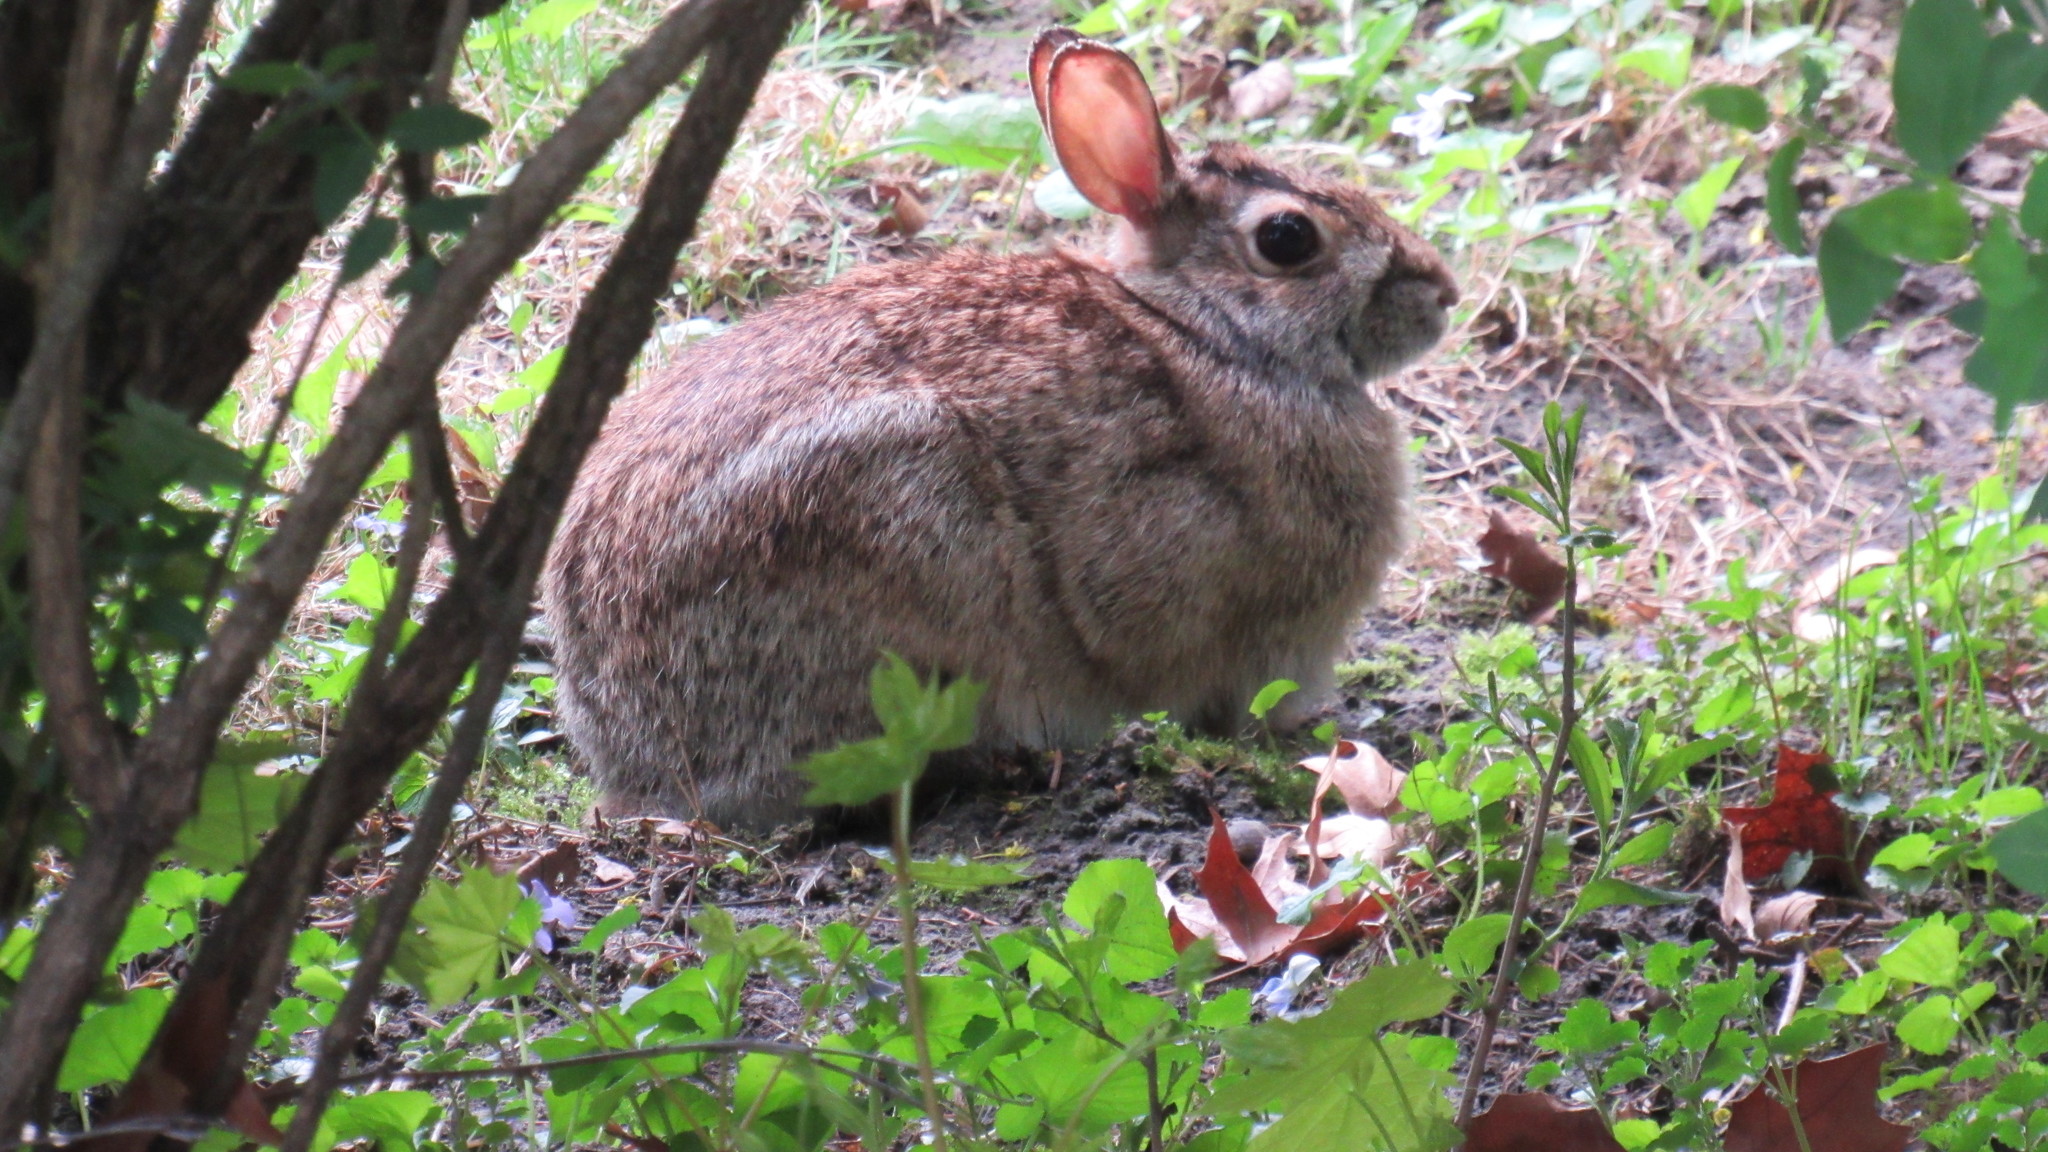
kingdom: Animalia
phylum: Chordata
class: Mammalia
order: Lagomorpha
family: Leporidae
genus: Sylvilagus
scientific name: Sylvilagus floridanus
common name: Eastern cottontail
